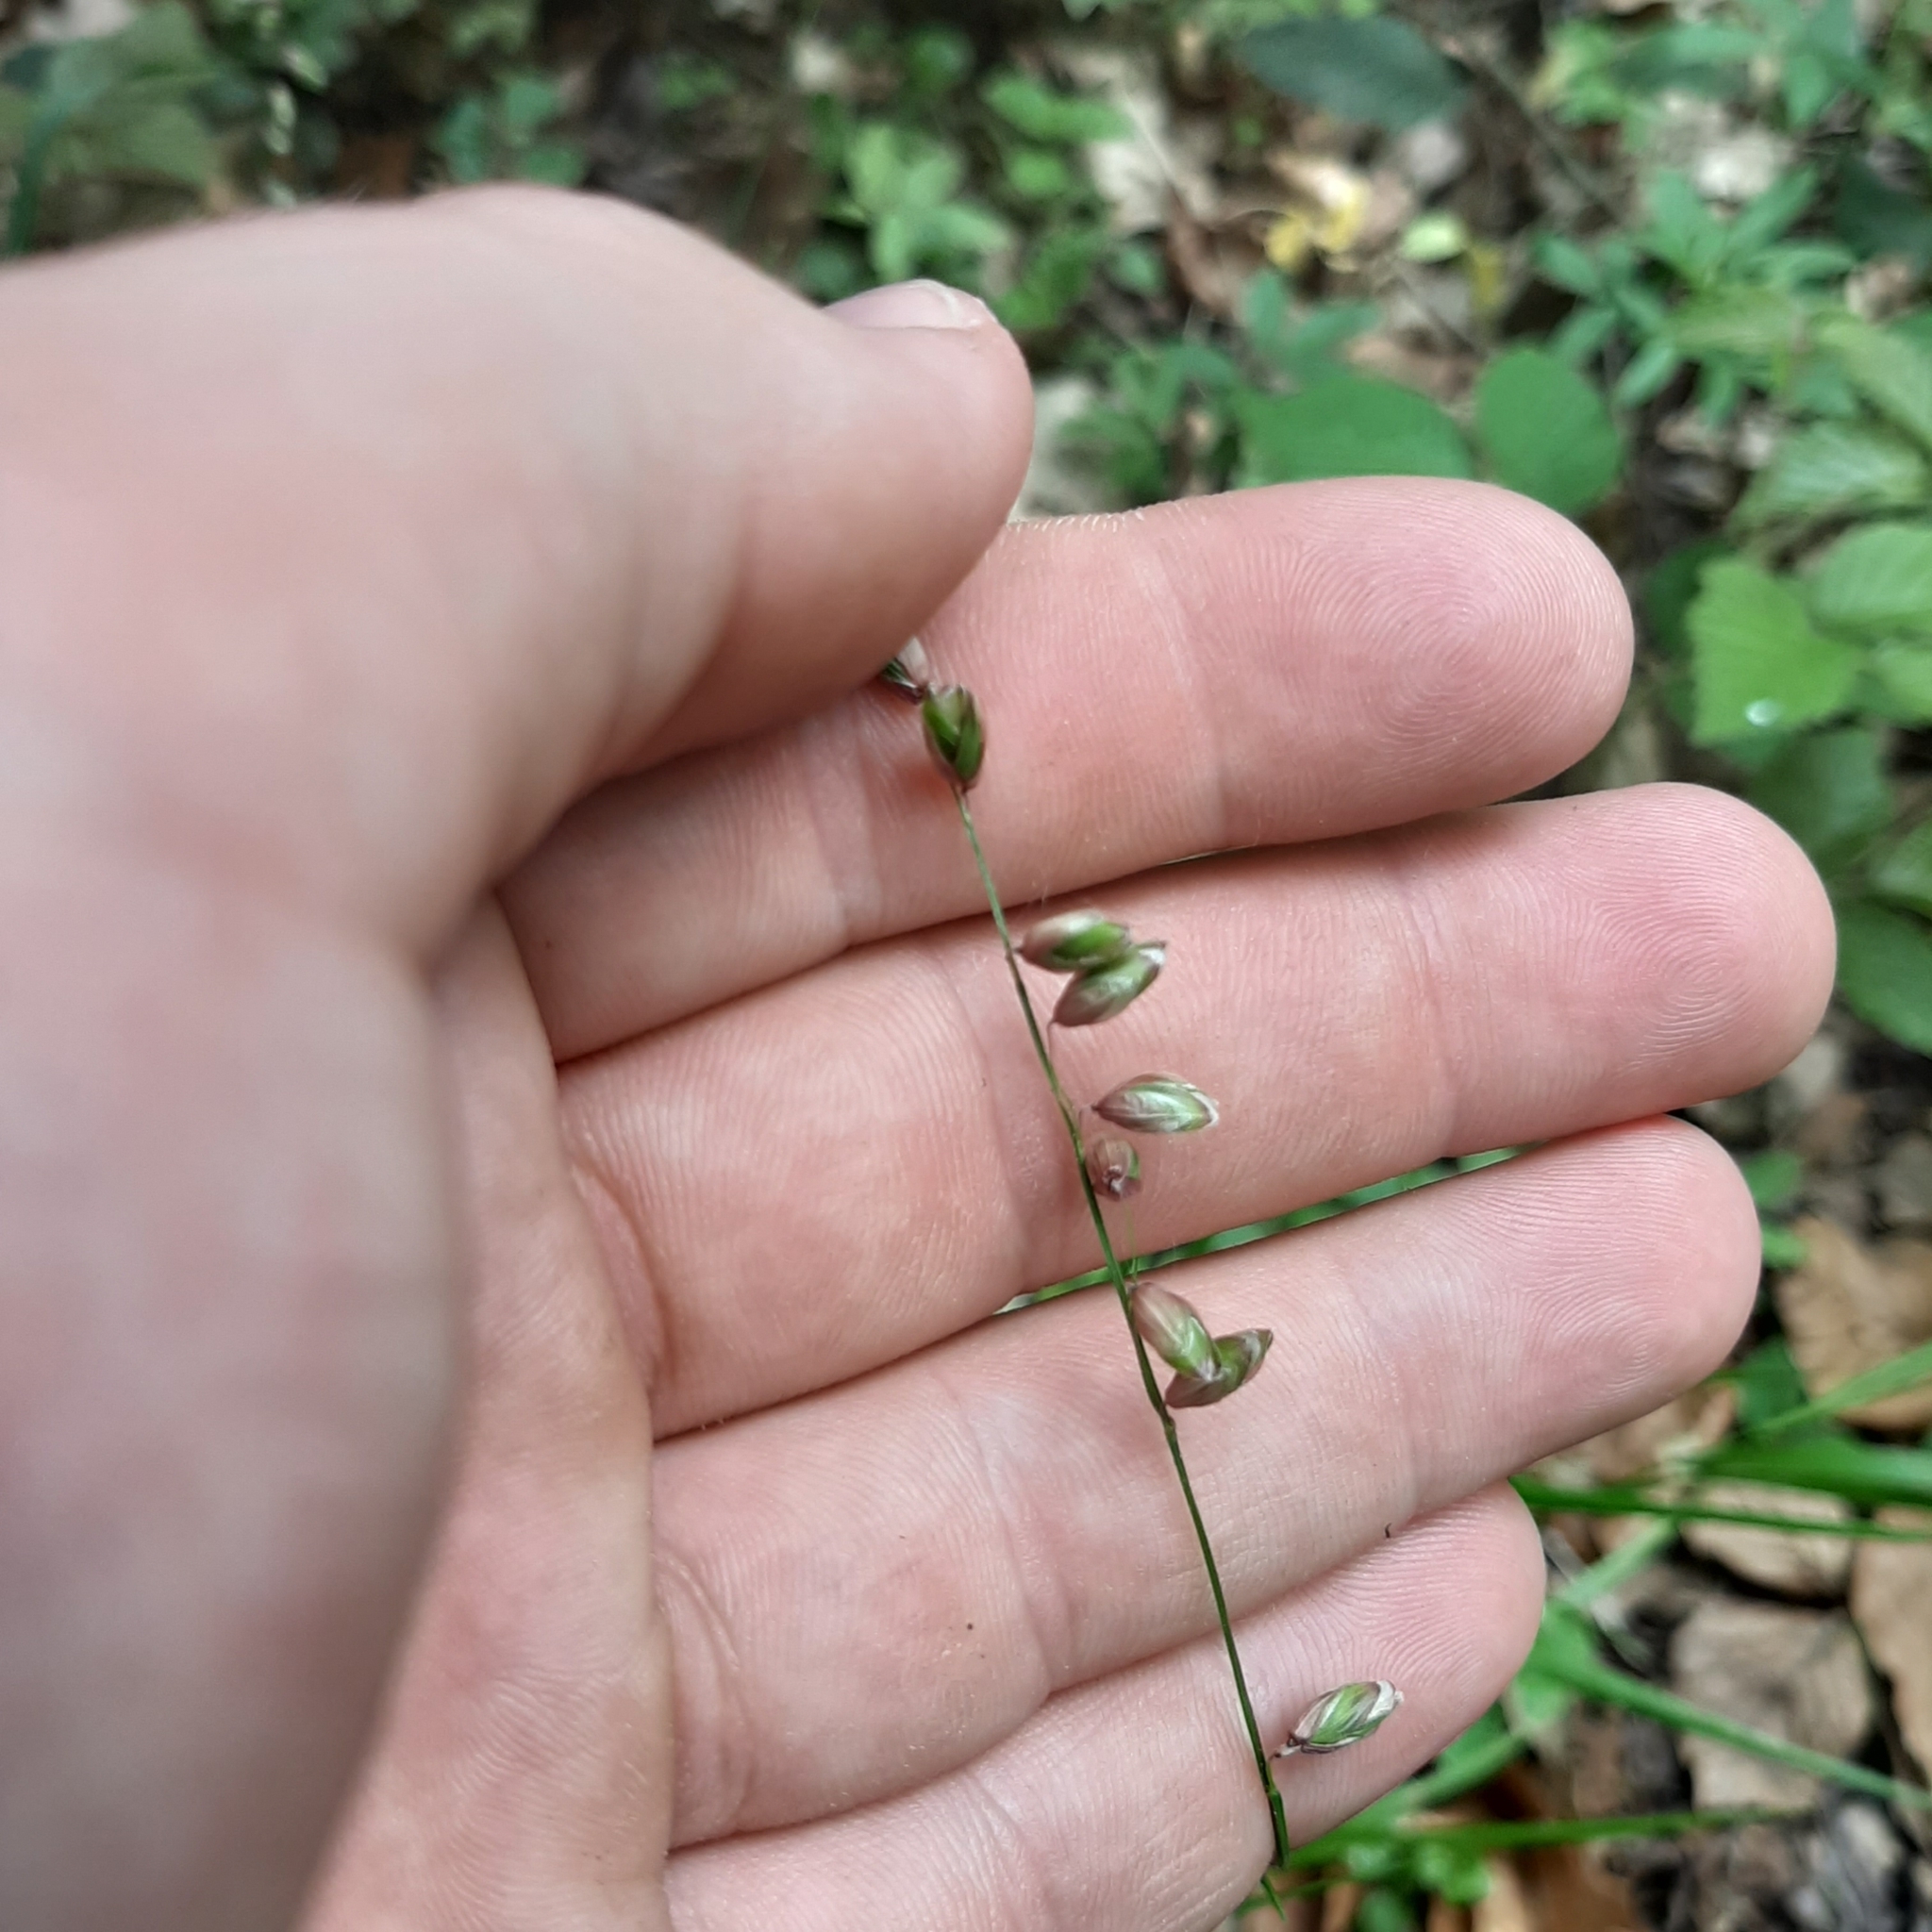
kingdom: Plantae
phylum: Tracheophyta
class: Liliopsida
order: Poales
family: Poaceae
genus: Melica
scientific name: Melica nutans
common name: Mountain melick
